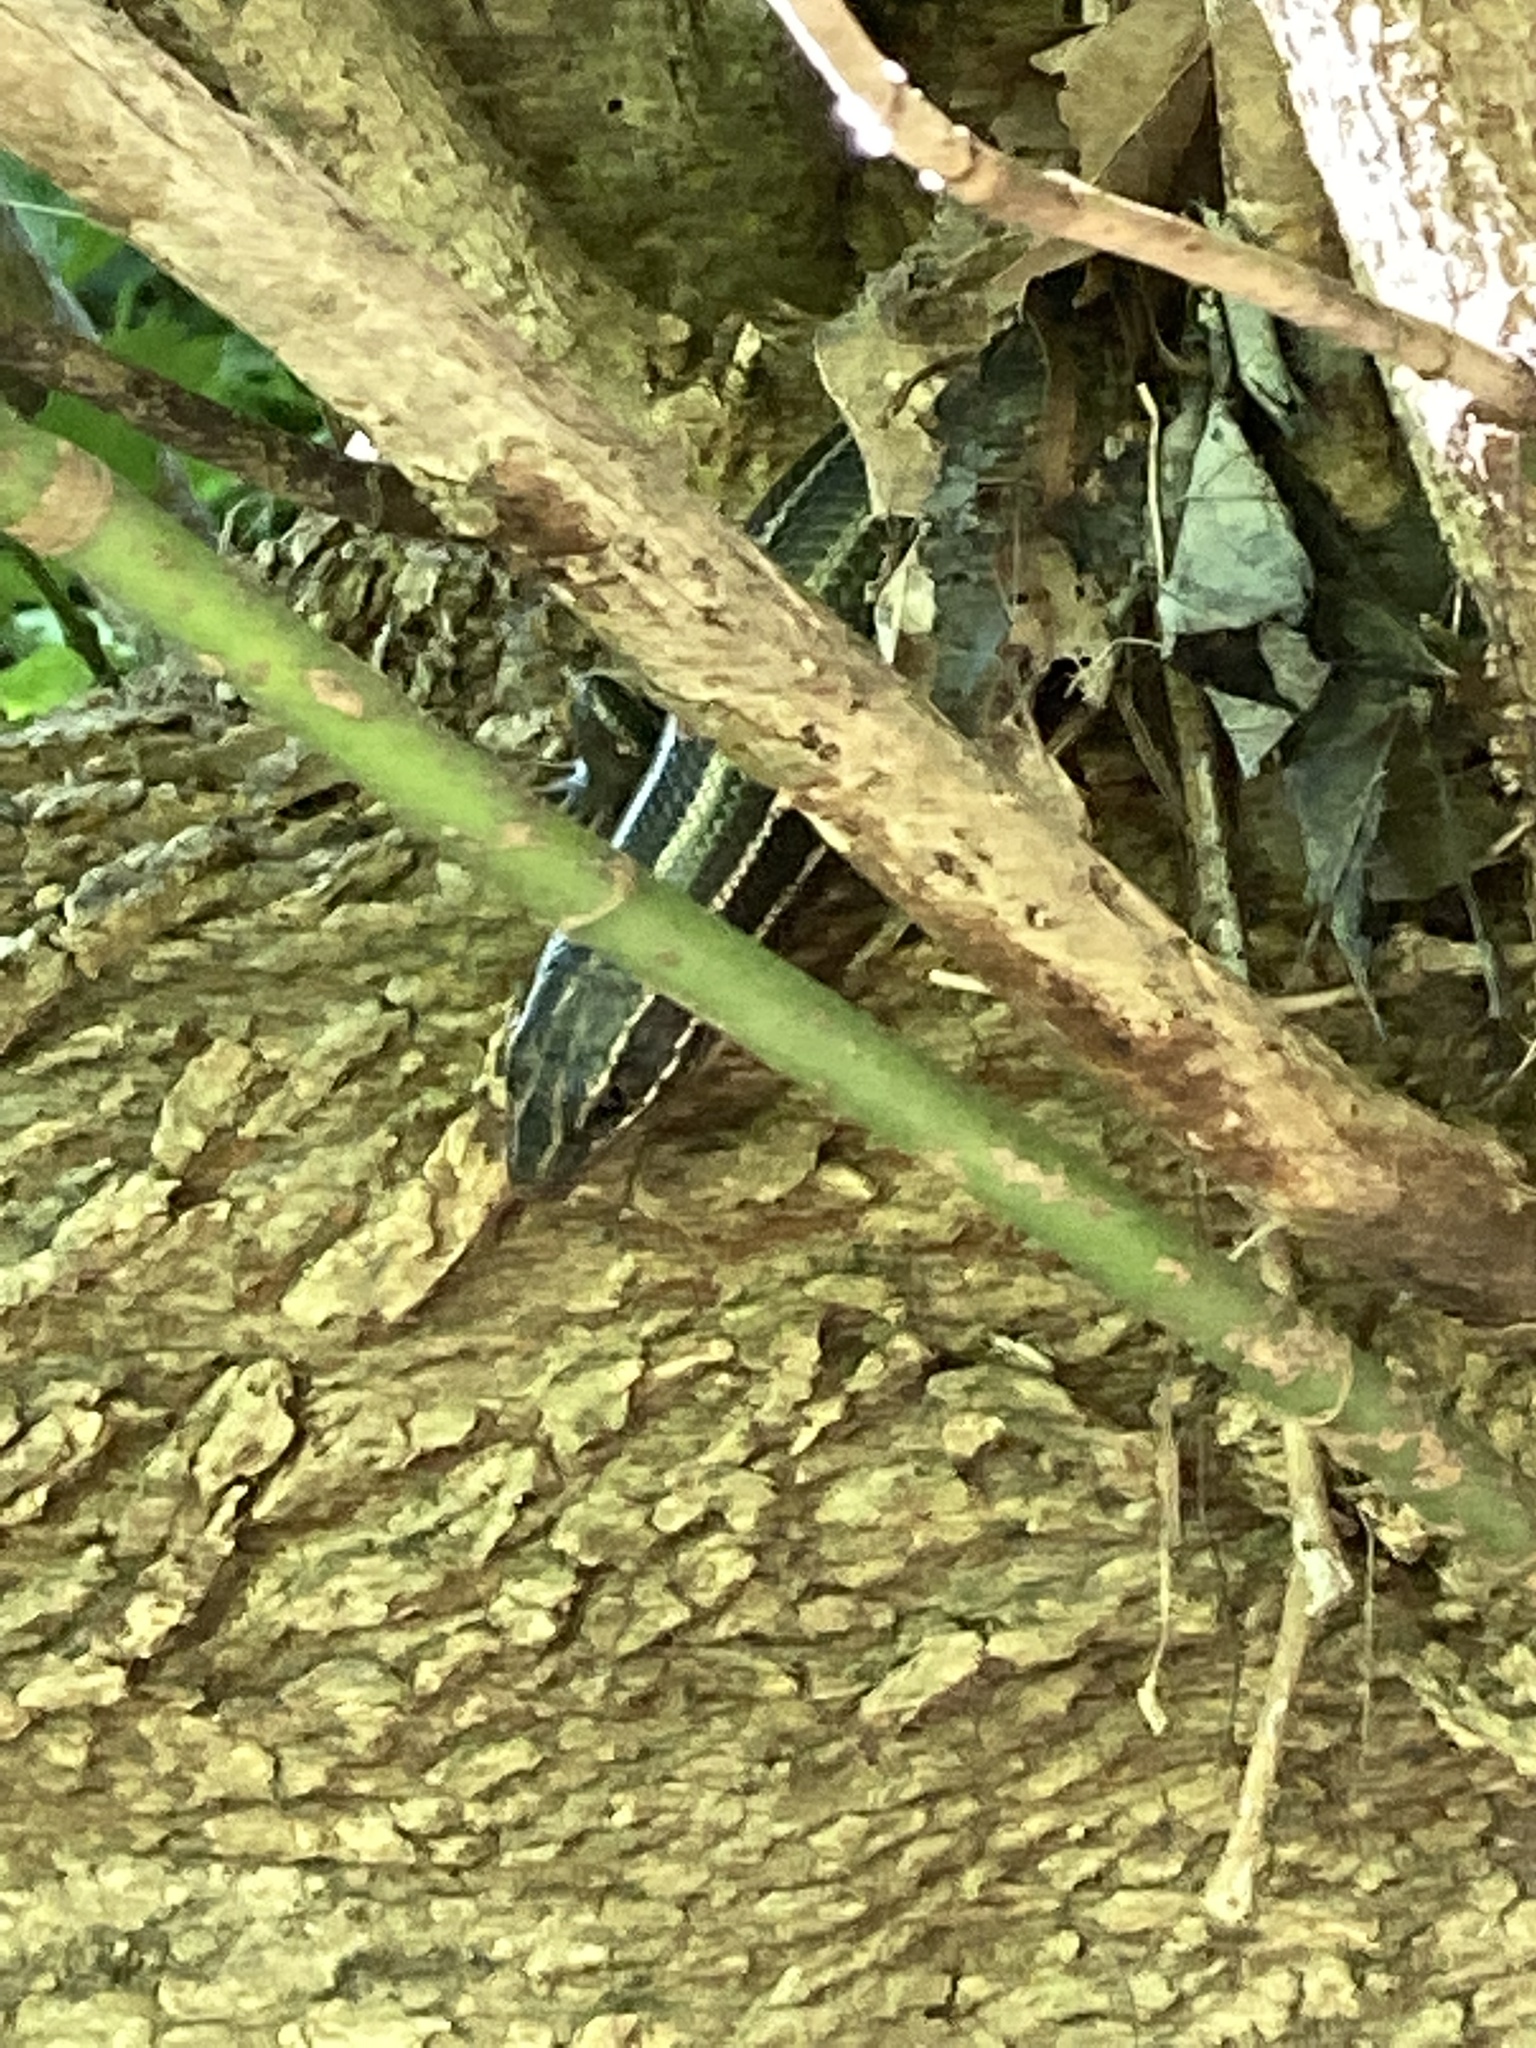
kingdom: Animalia
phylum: Chordata
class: Squamata
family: Scincidae
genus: Plestiodon
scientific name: Plestiodon laticeps
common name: Broadhead skink
